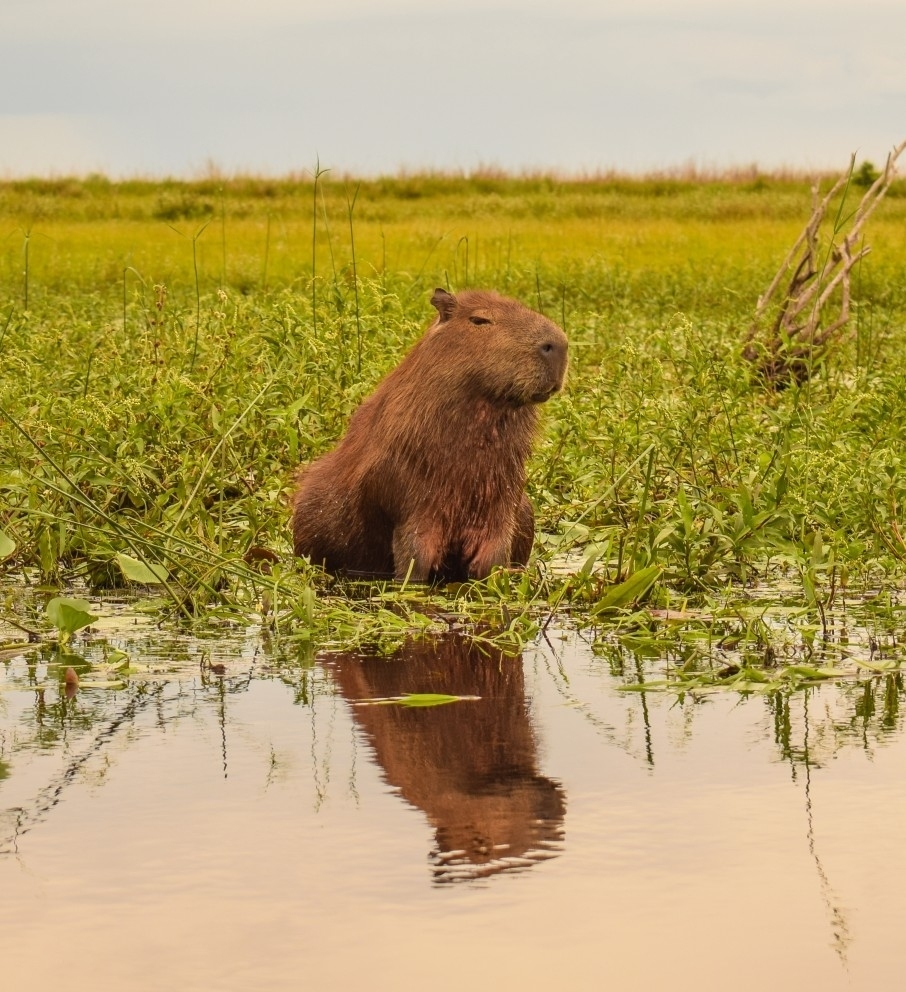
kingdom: Animalia
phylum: Chordata
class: Mammalia
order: Rodentia
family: Caviidae
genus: Hydrochoerus
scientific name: Hydrochoerus hydrochaeris
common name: Capybara
